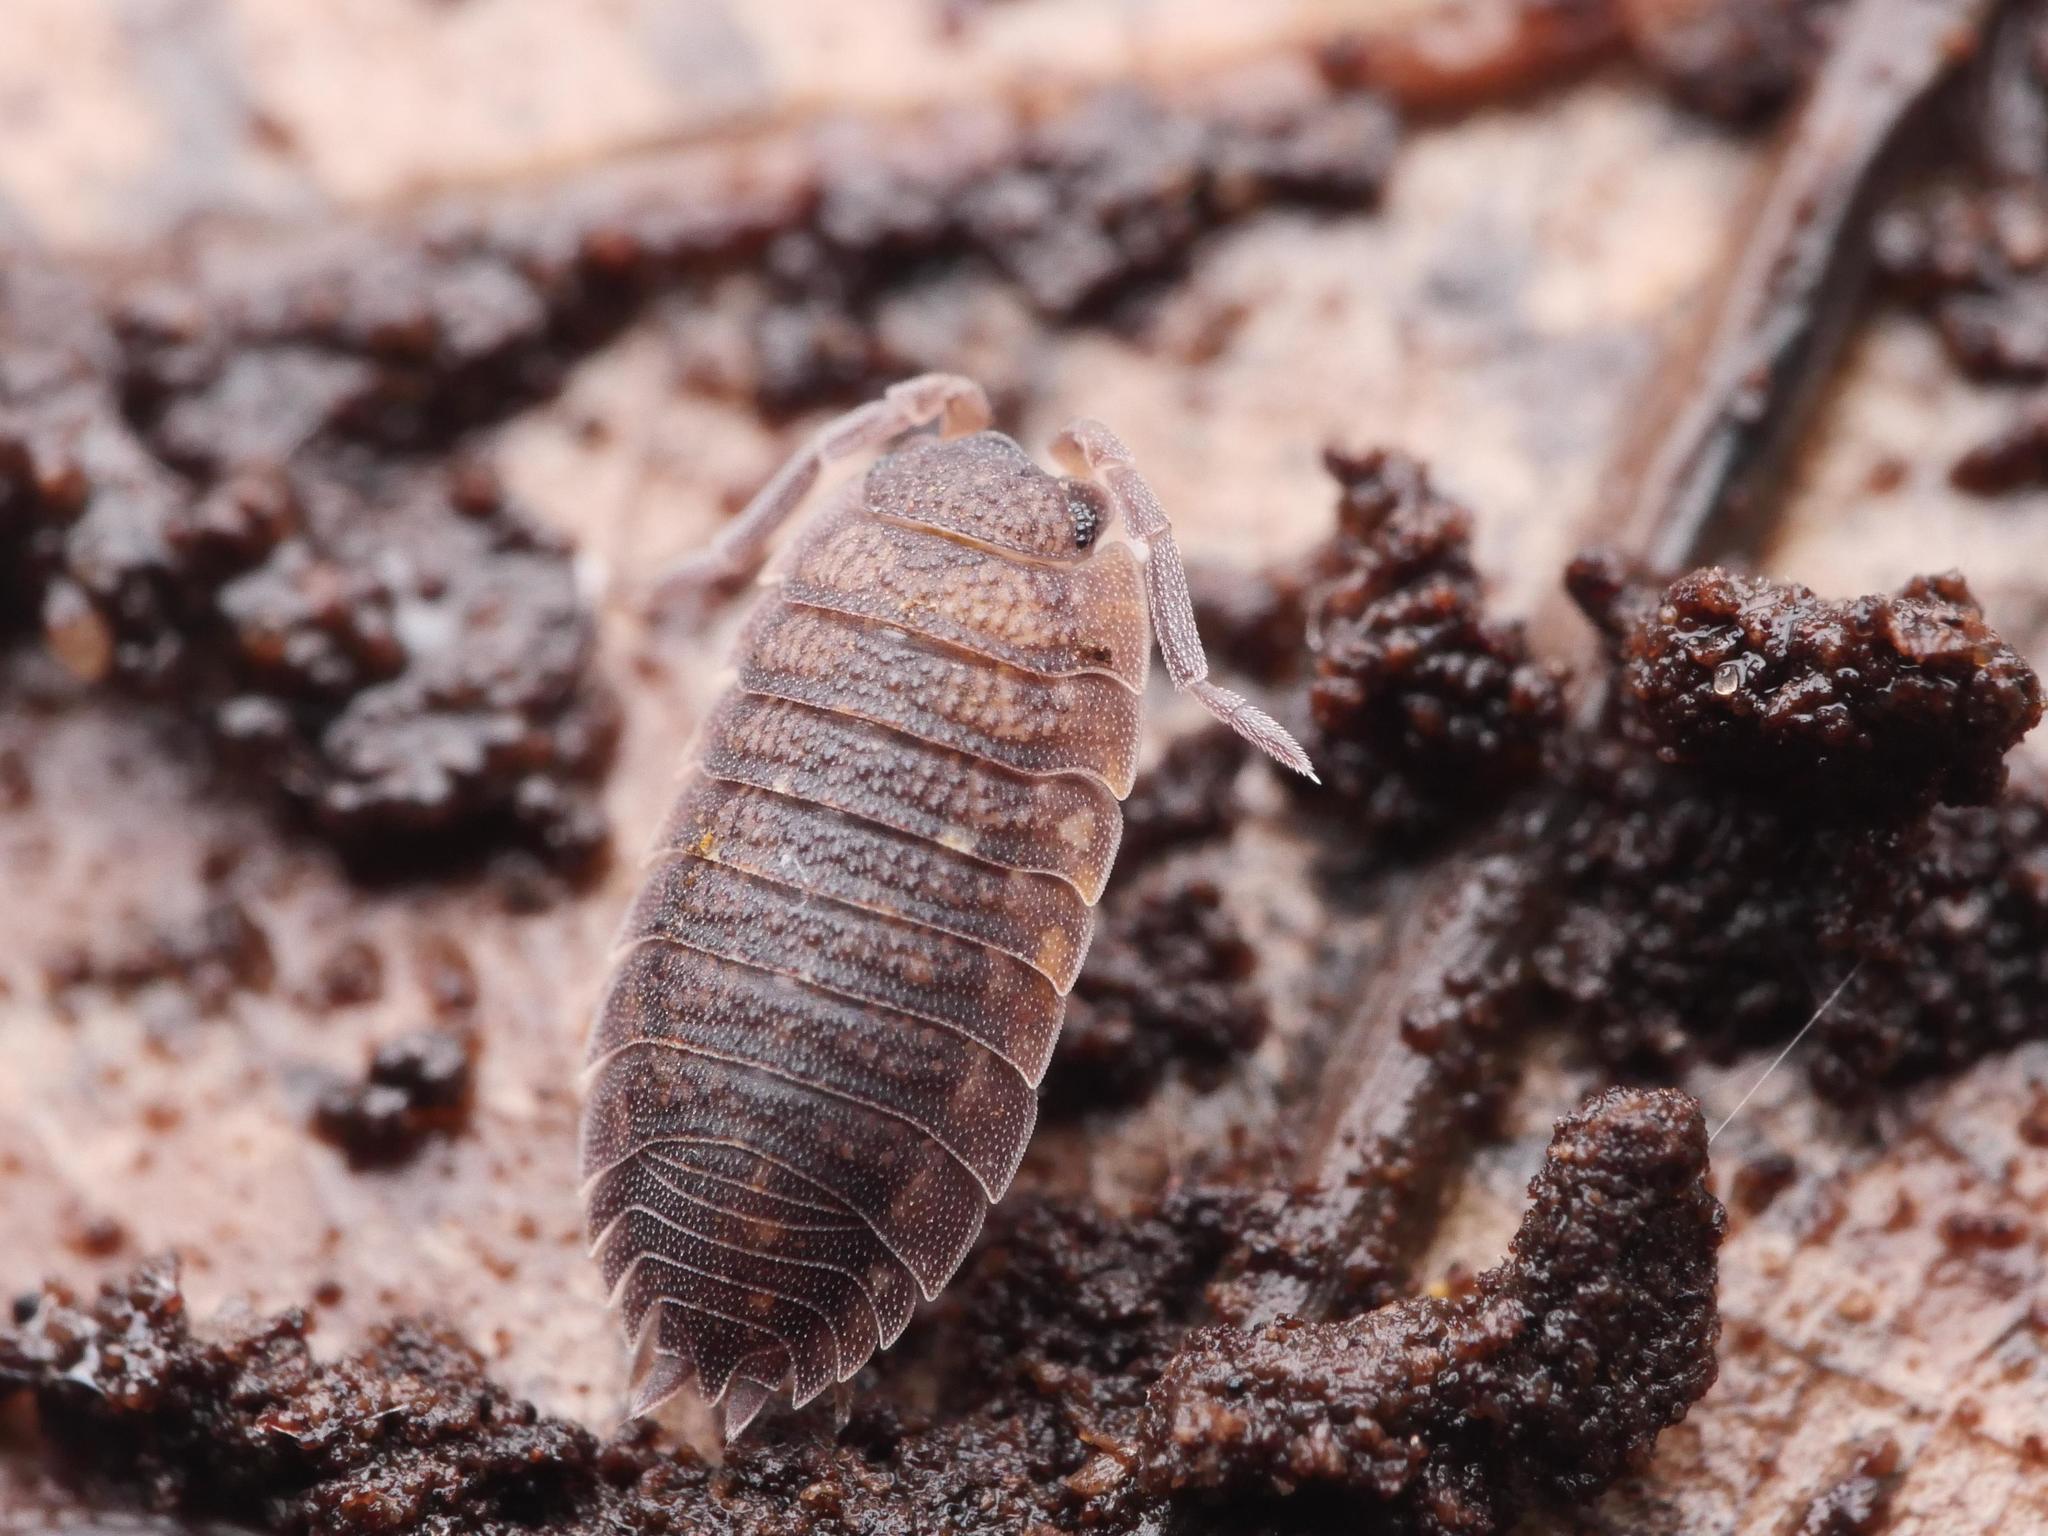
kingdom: Animalia
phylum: Arthropoda
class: Malacostraca
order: Isopoda
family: Porcellionidae
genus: Porcellio
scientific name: Porcellio scaber
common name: Common rough woodlouse
